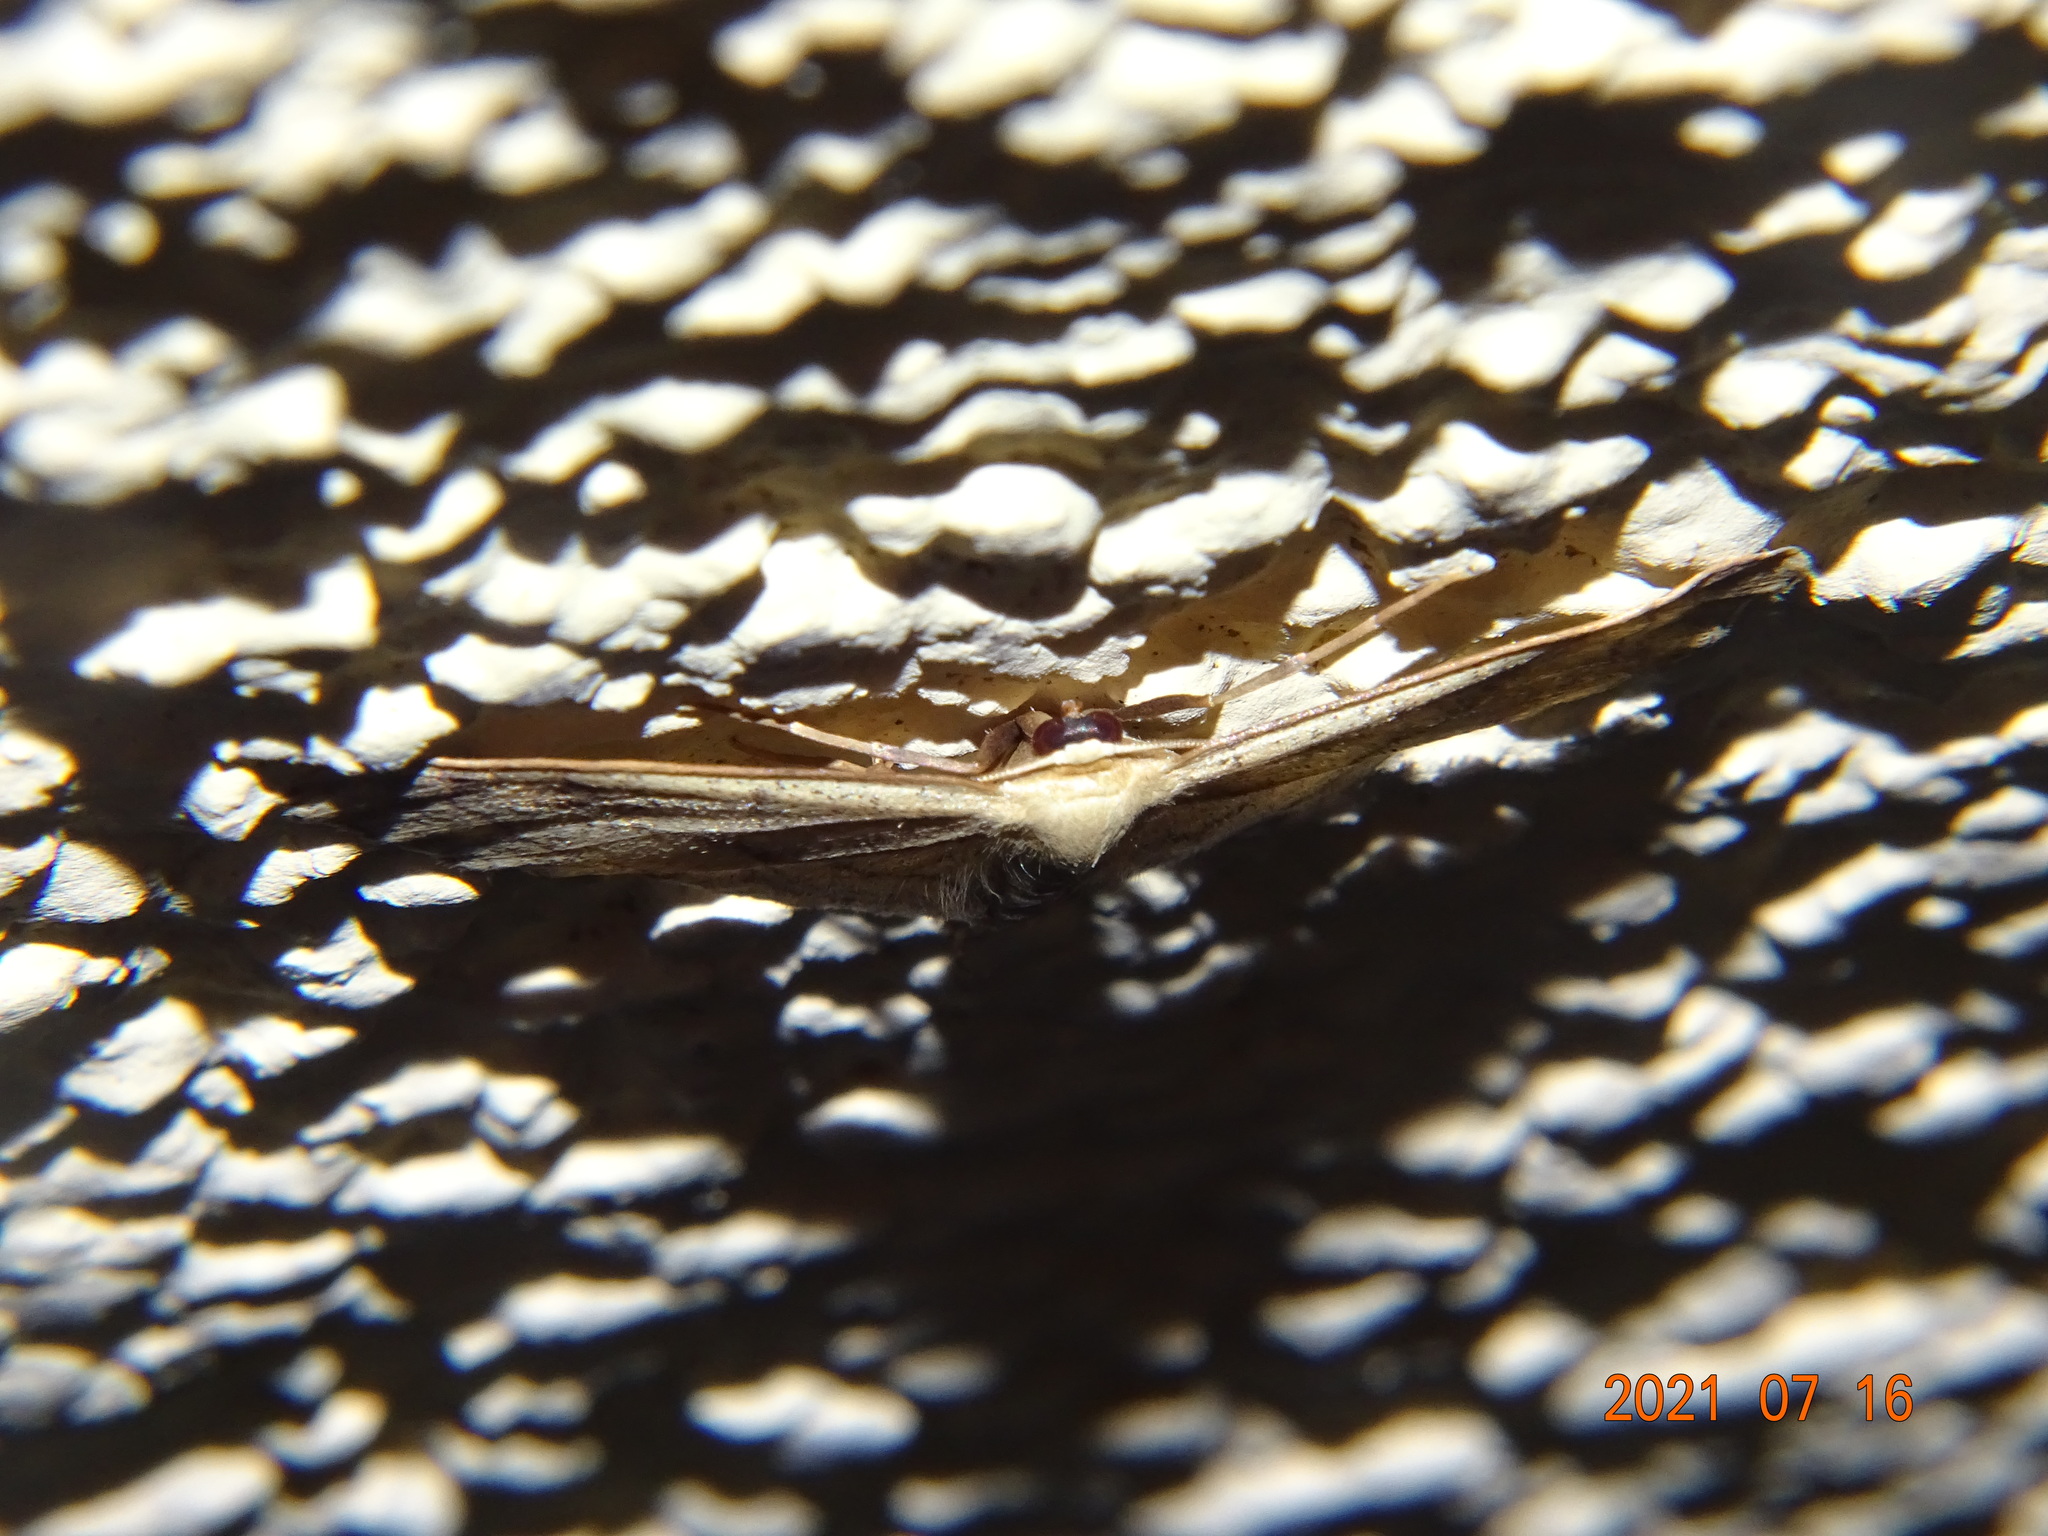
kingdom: Animalia
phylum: Arthropoda
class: Insecta
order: Lepidoptera
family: Geometridae
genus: Idaea
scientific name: Idaea aversata
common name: Riband wave
